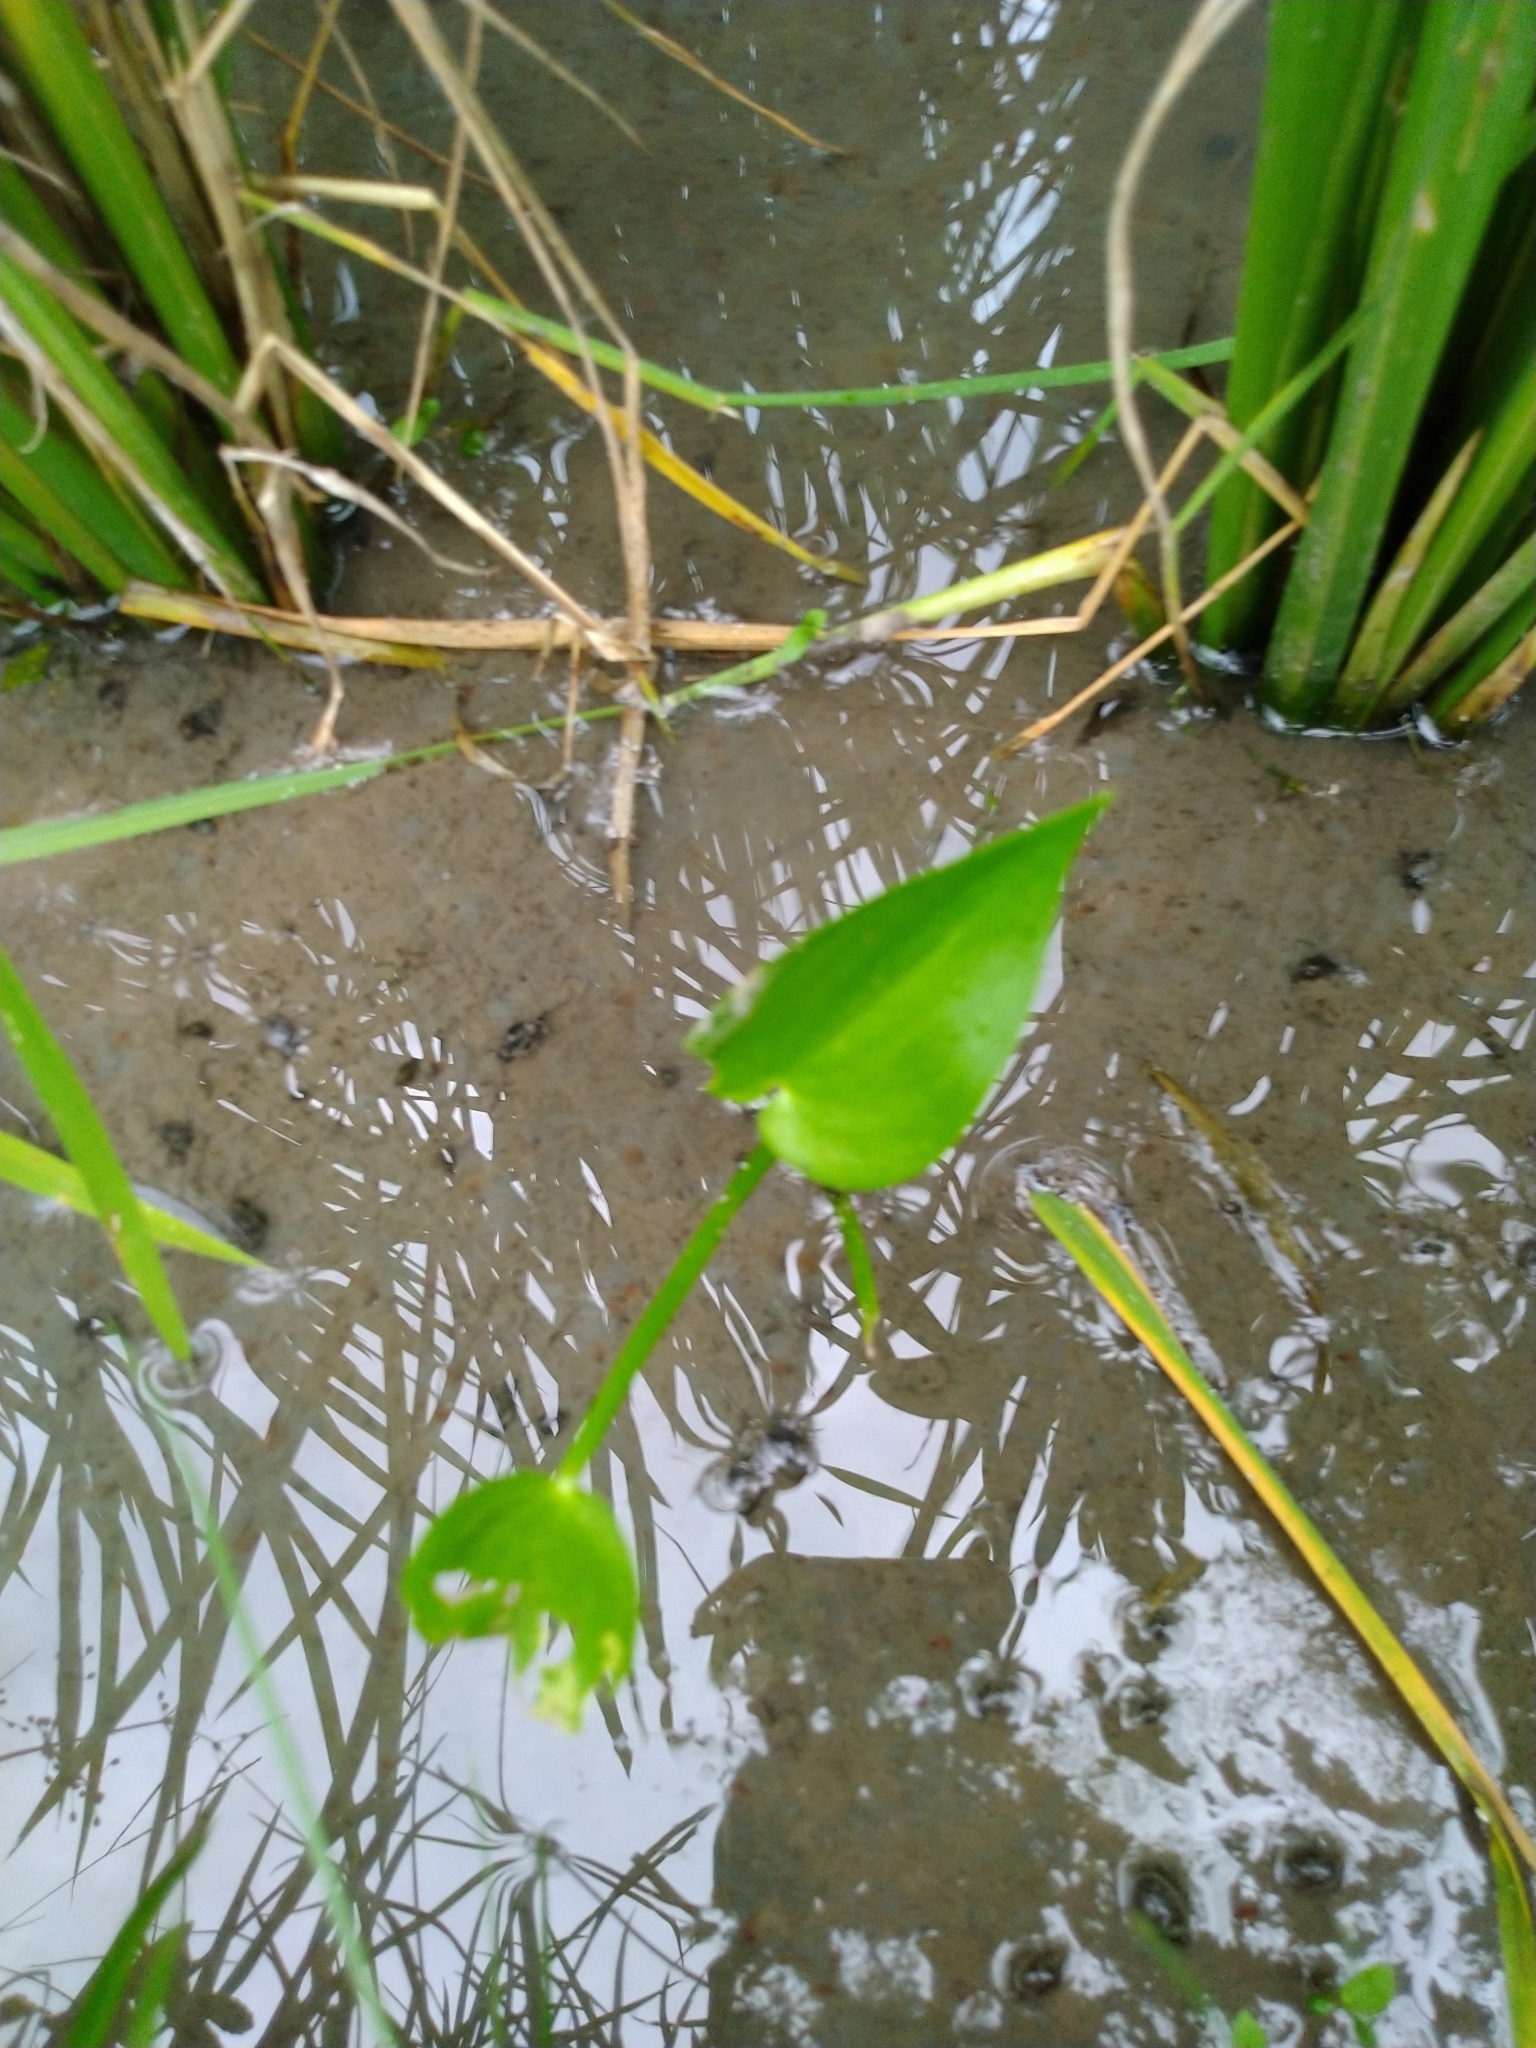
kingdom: Plantae
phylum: Tracheophyta
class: Liliopsida
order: Commelinales
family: Pontederiaceae
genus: Pontederia
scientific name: Pontederia vaginalis
